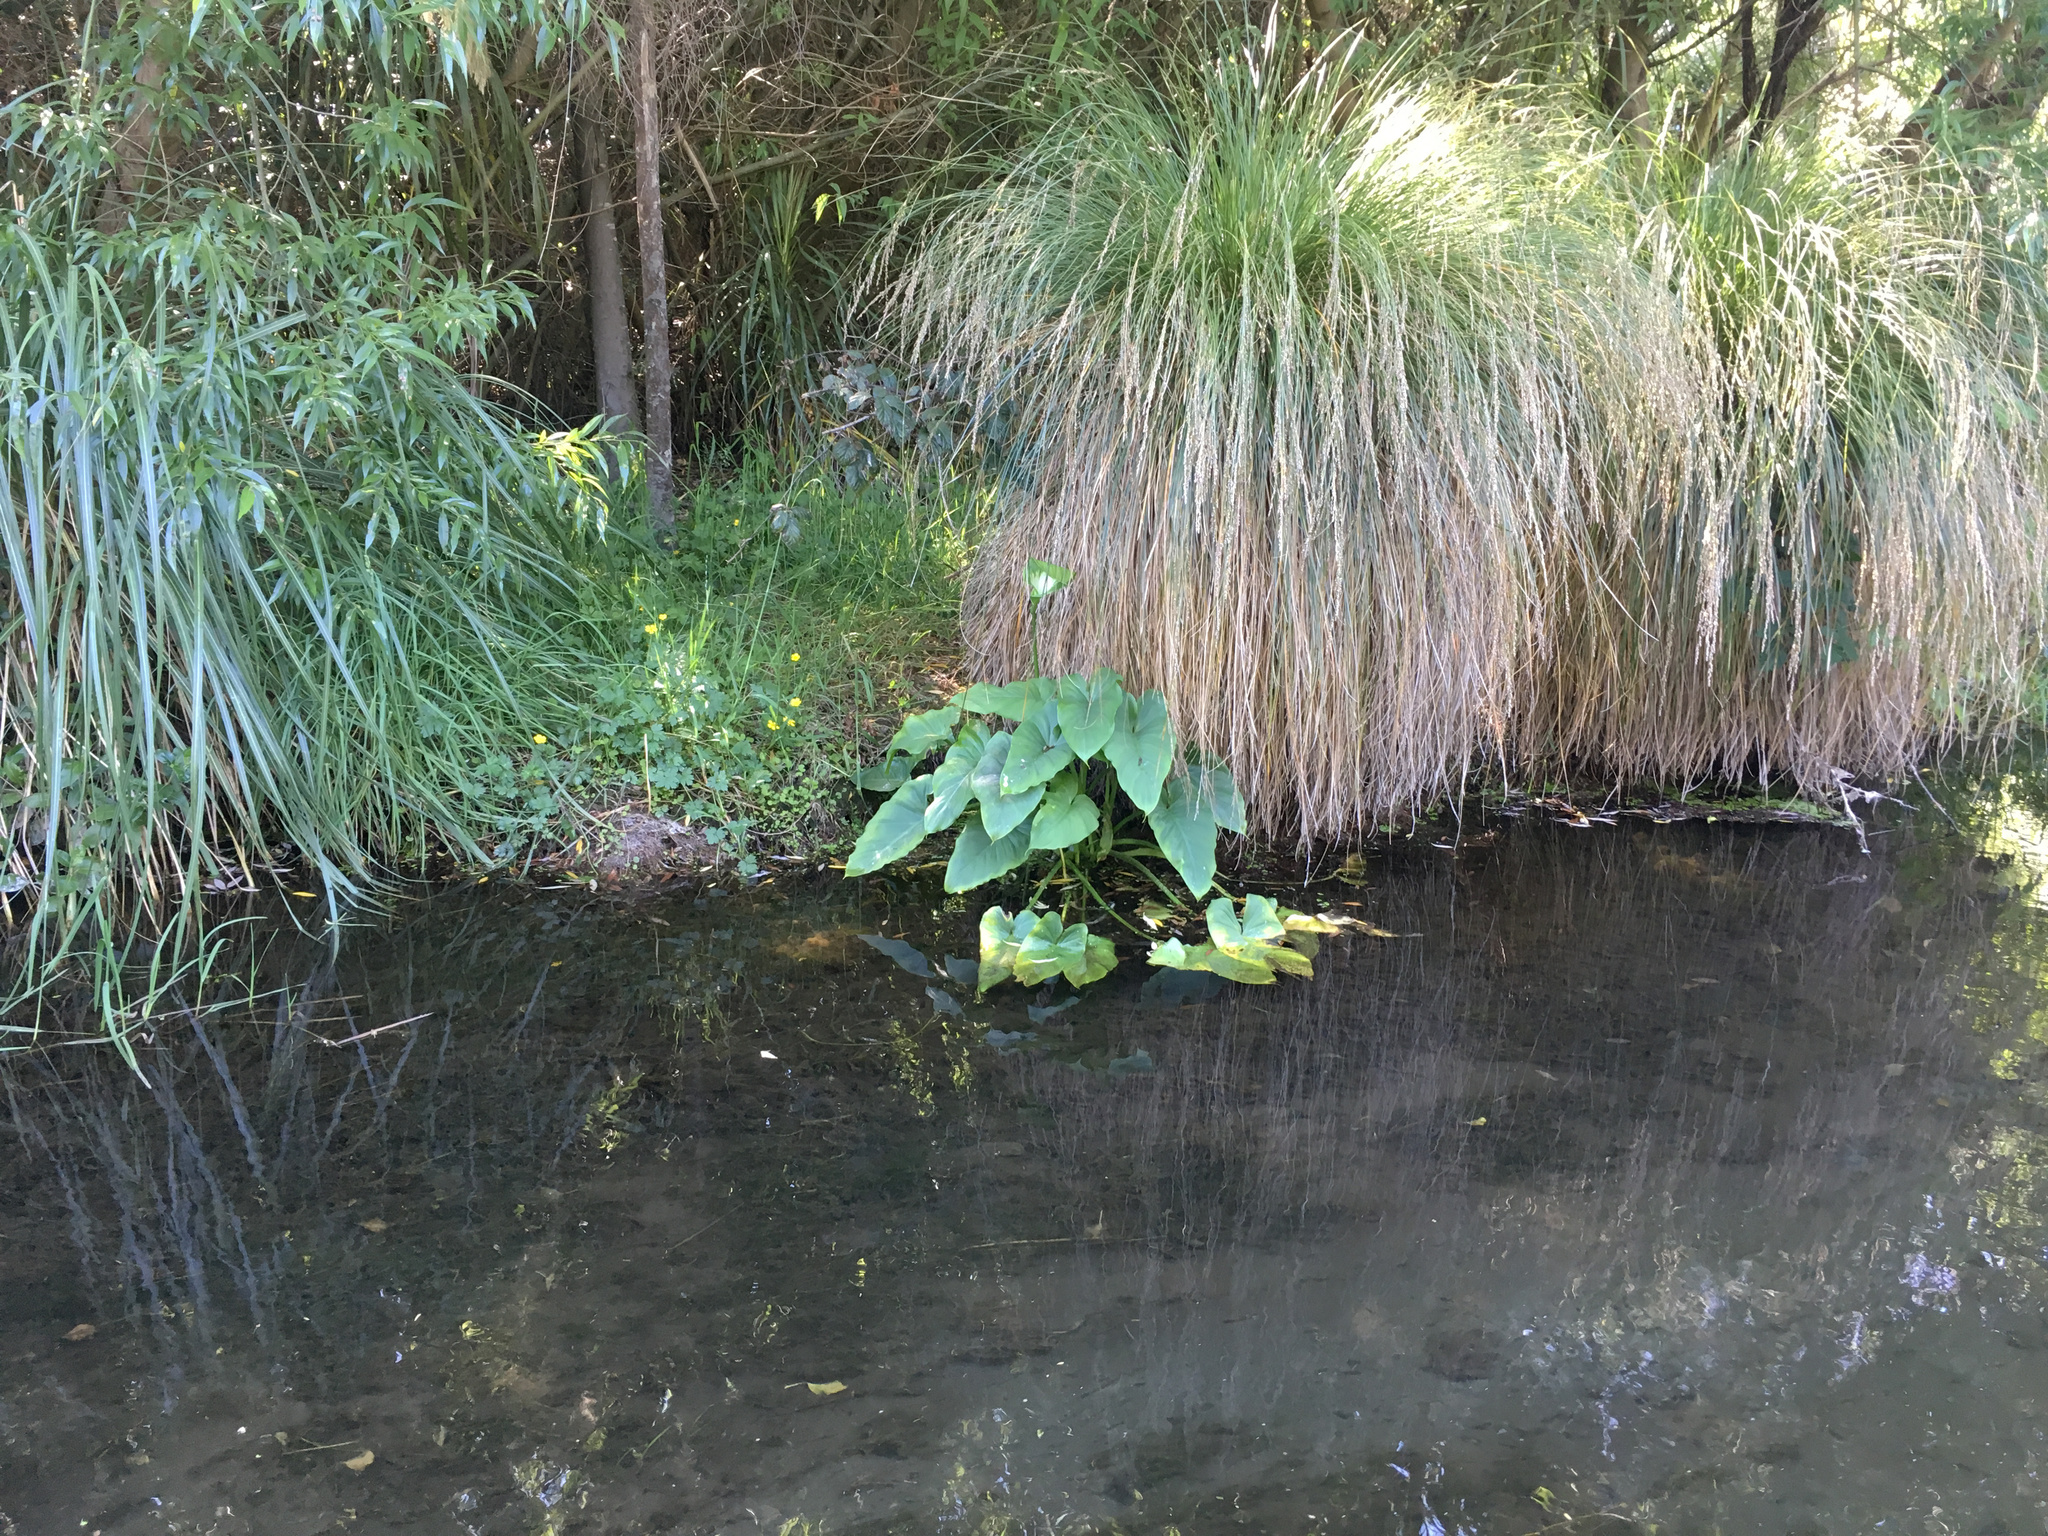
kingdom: Plantae
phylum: Tracheophyta
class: Liliopsida
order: Alismatales
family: Araceae
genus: Zantedeschia
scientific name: Zantedeschia aethiopica
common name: Altar-lily
